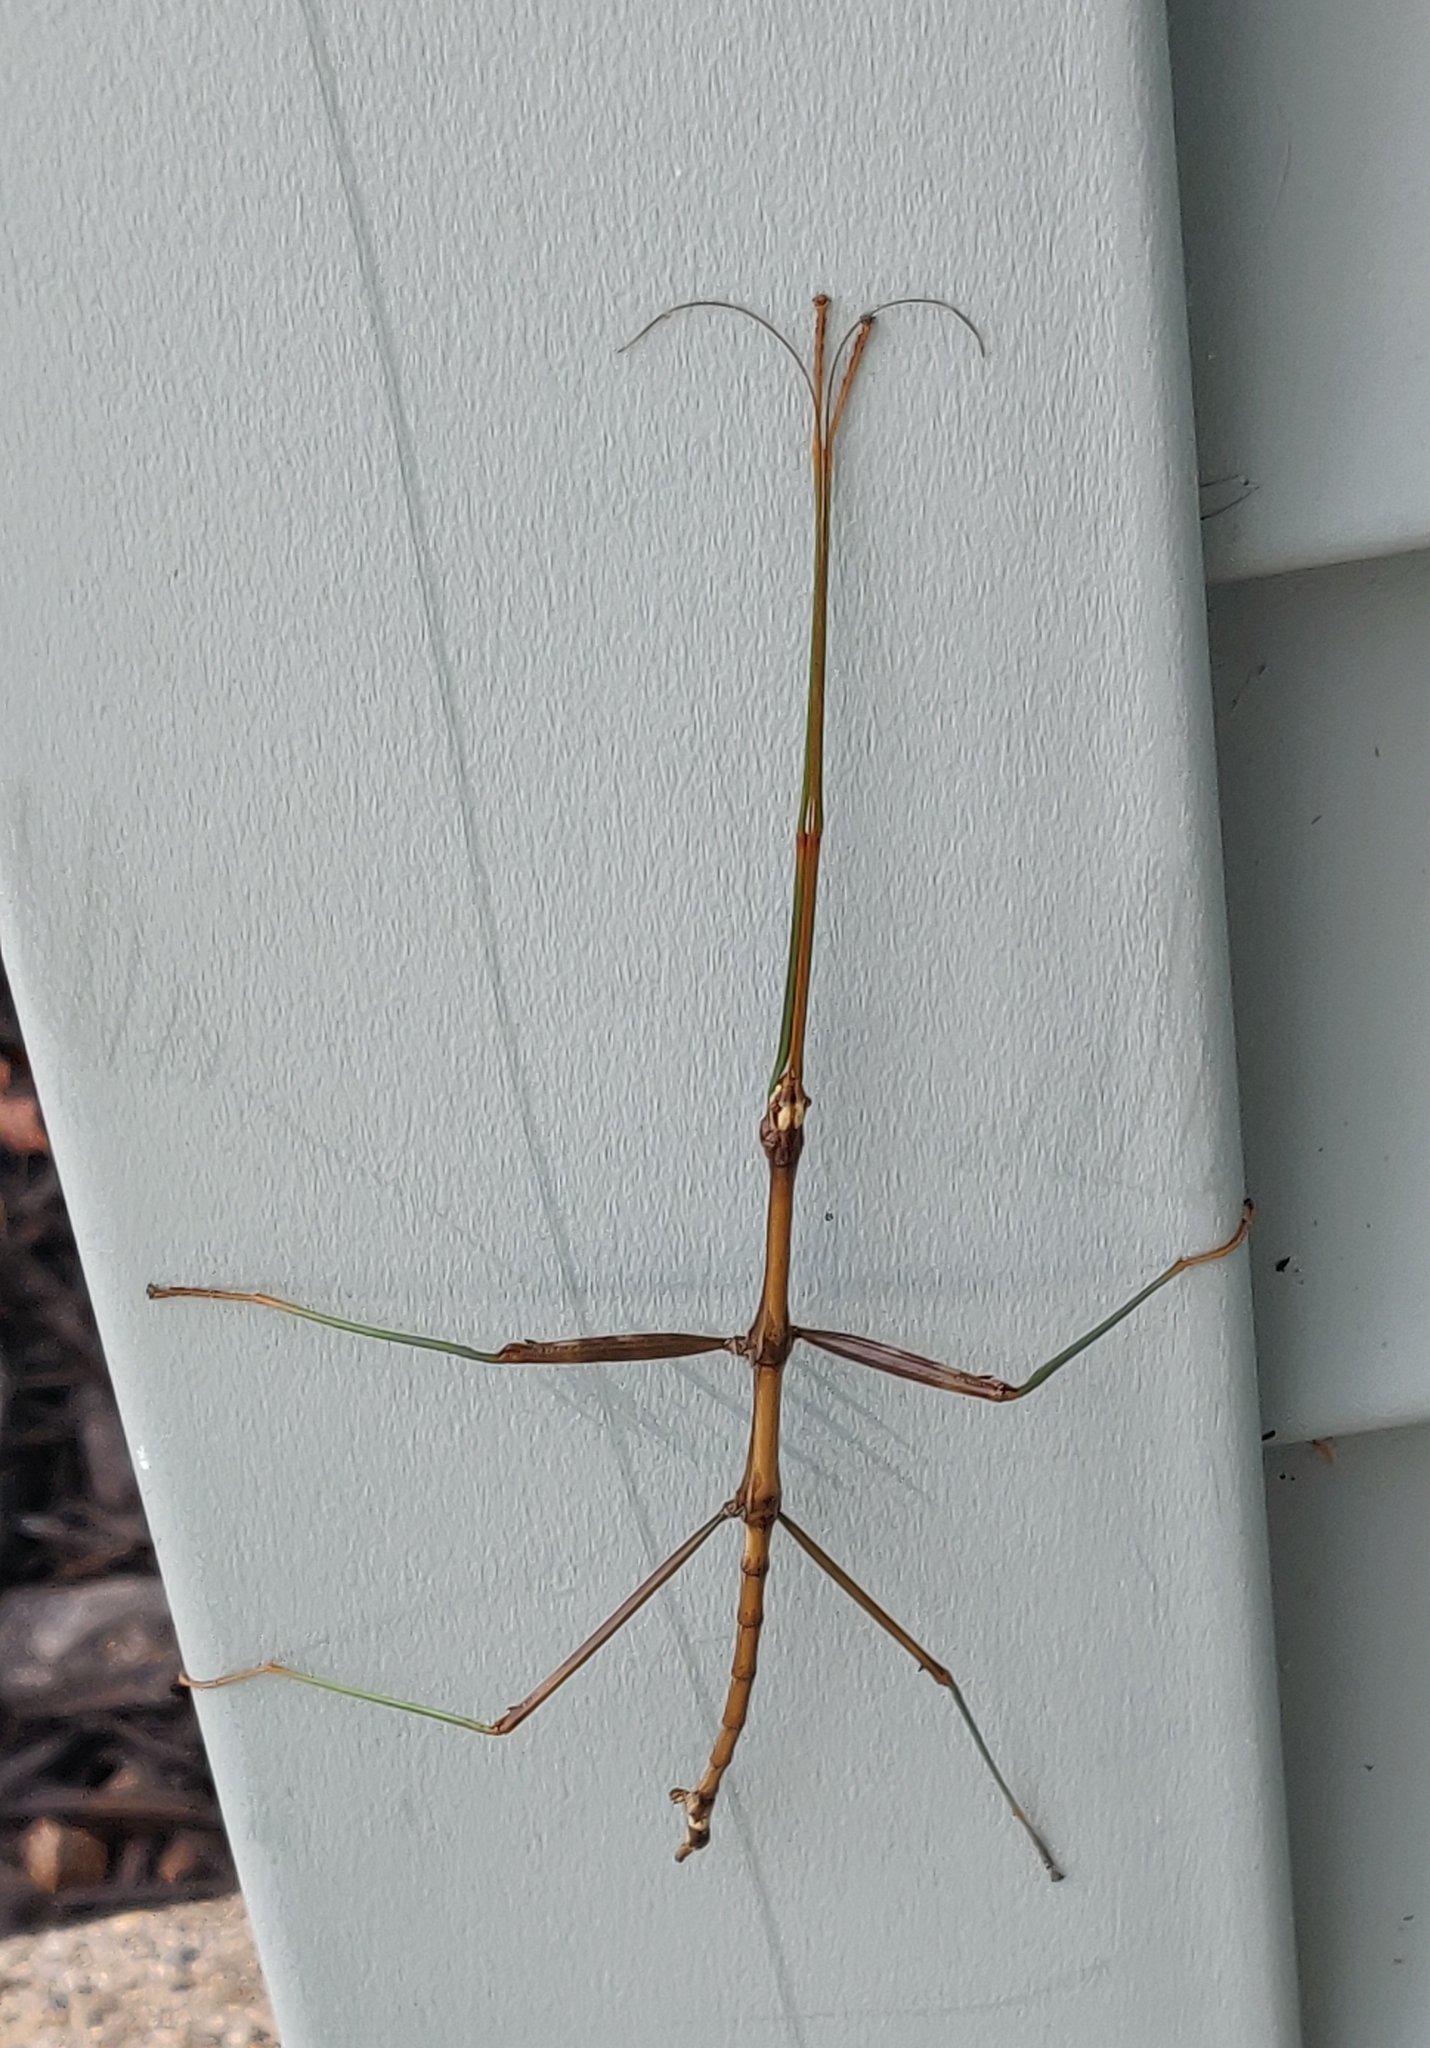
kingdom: Animalia
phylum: Arthropoda
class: Insecta
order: Phasmida
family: Diapheromeridae
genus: Diapheromera
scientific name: Diapheromera femorata
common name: Common american walkingstick
